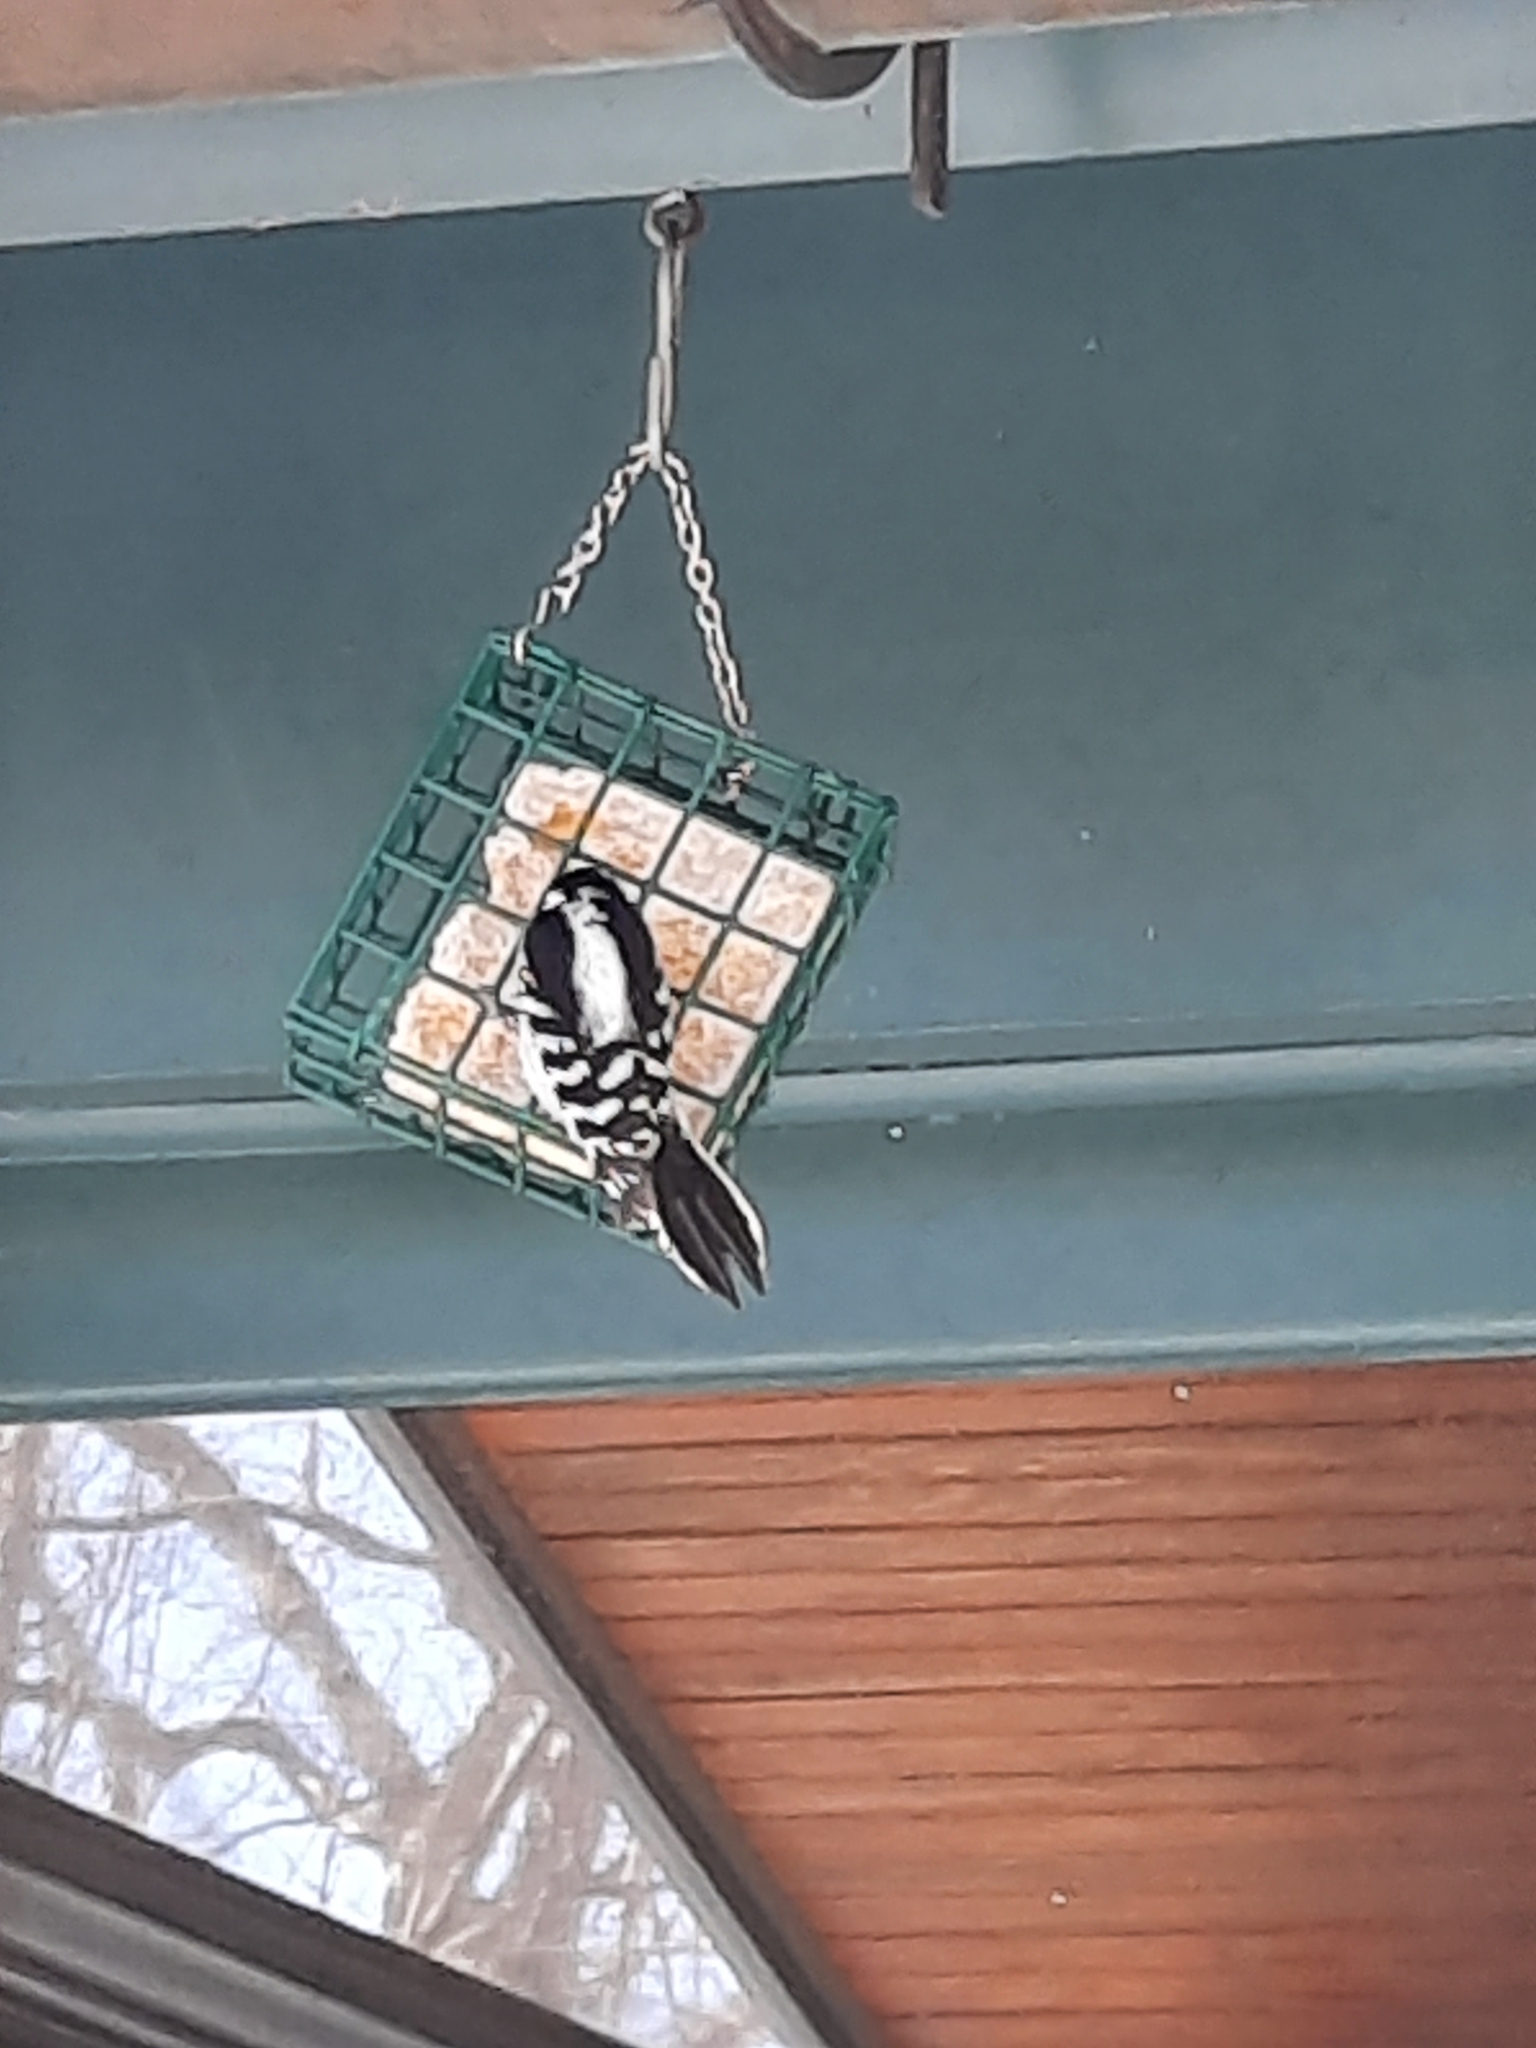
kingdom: Animalia
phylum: Chordata
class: Aves
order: Piciformes
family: Picidae
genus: Dryobates
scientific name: Dryobates pubescens
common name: Downy woodpecker
